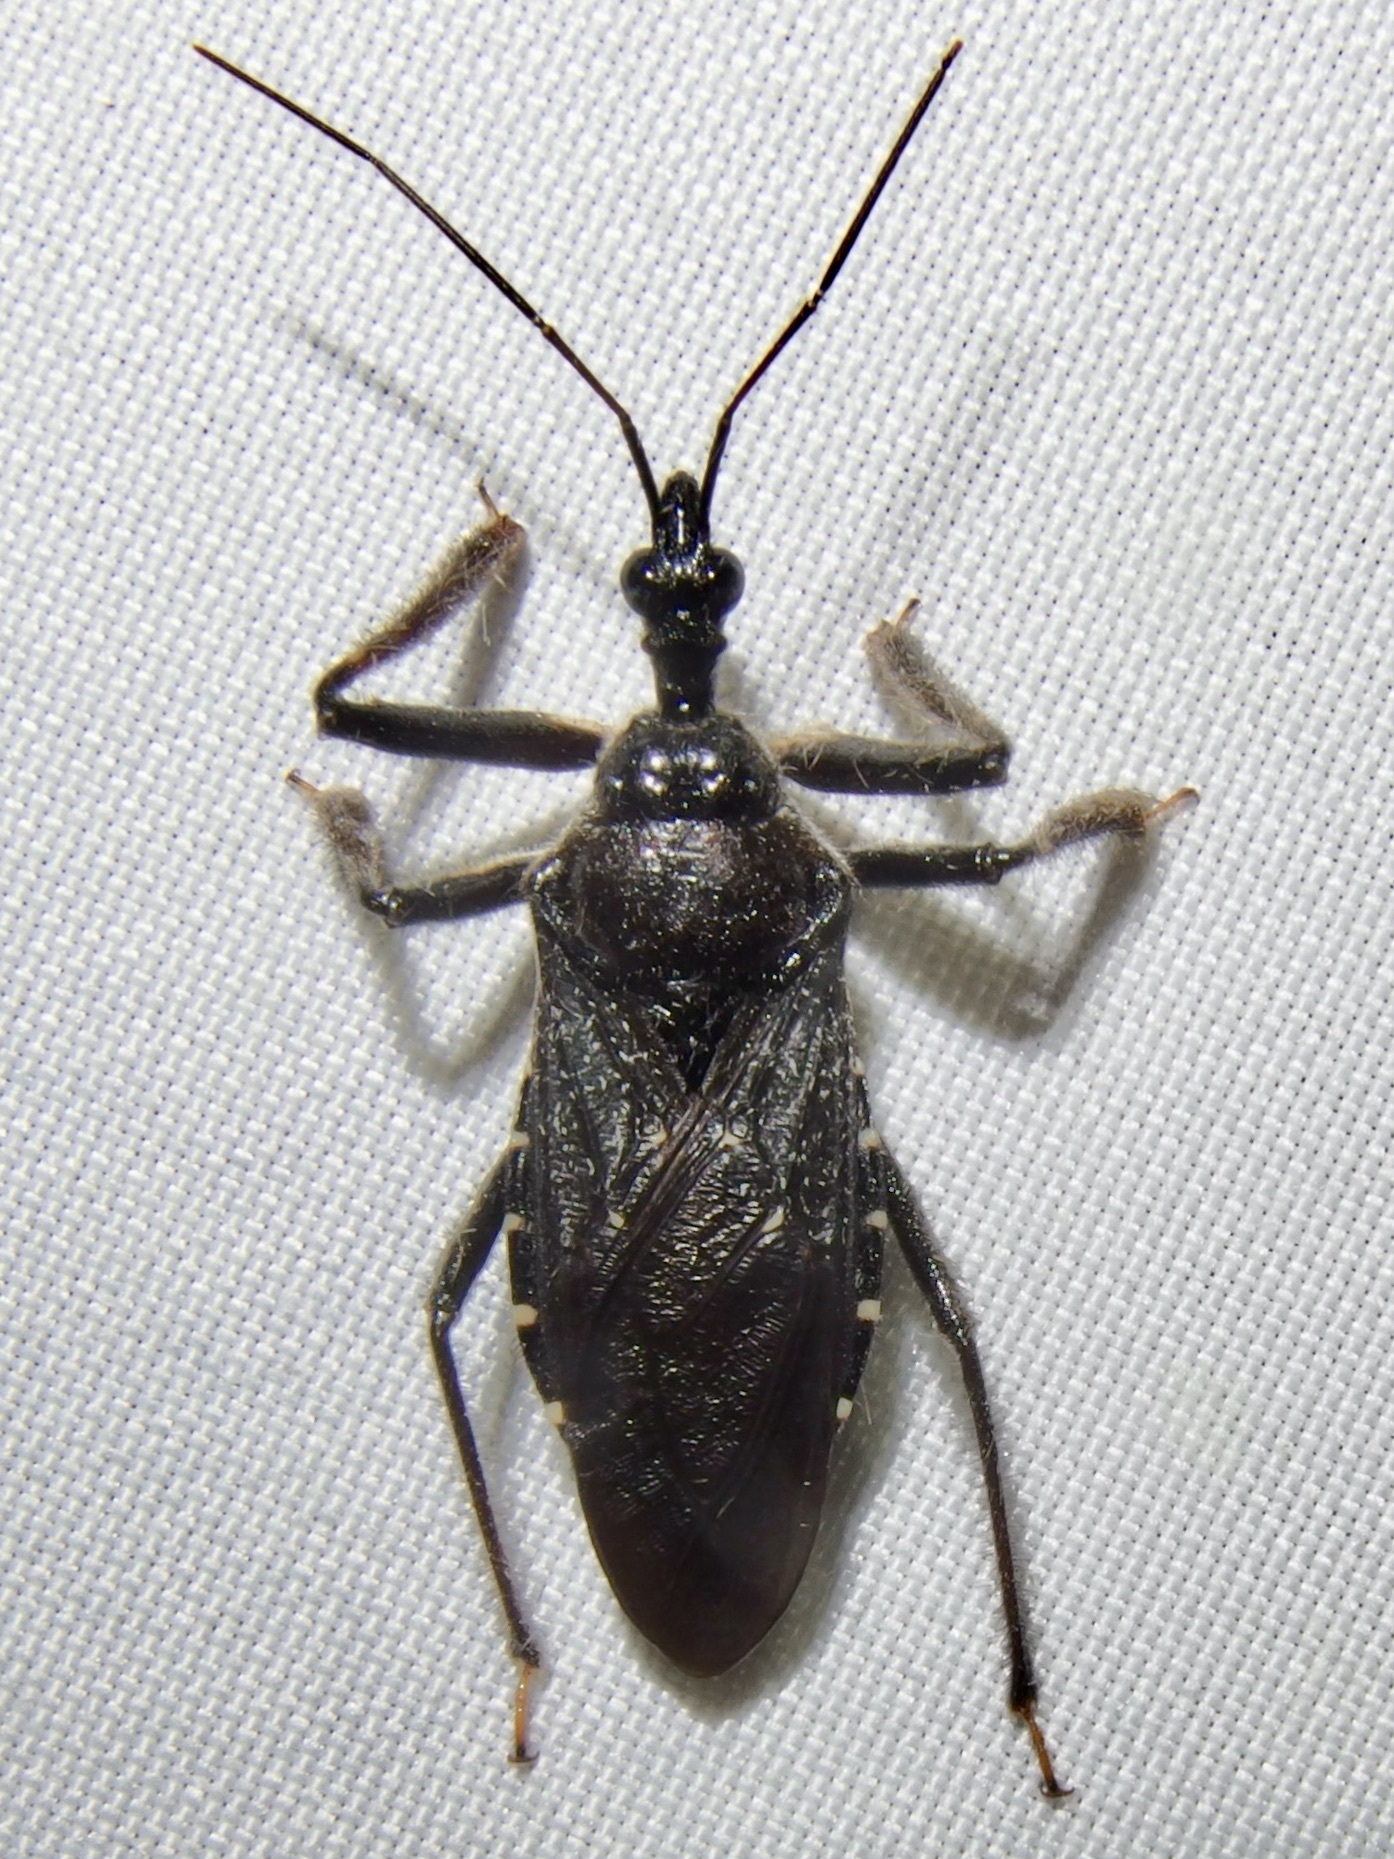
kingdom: Animalia
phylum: Arthropoda
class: Insecta
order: Hemiptera
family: Reduviidae
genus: Apiomerus
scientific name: Apiomerus longispinis
